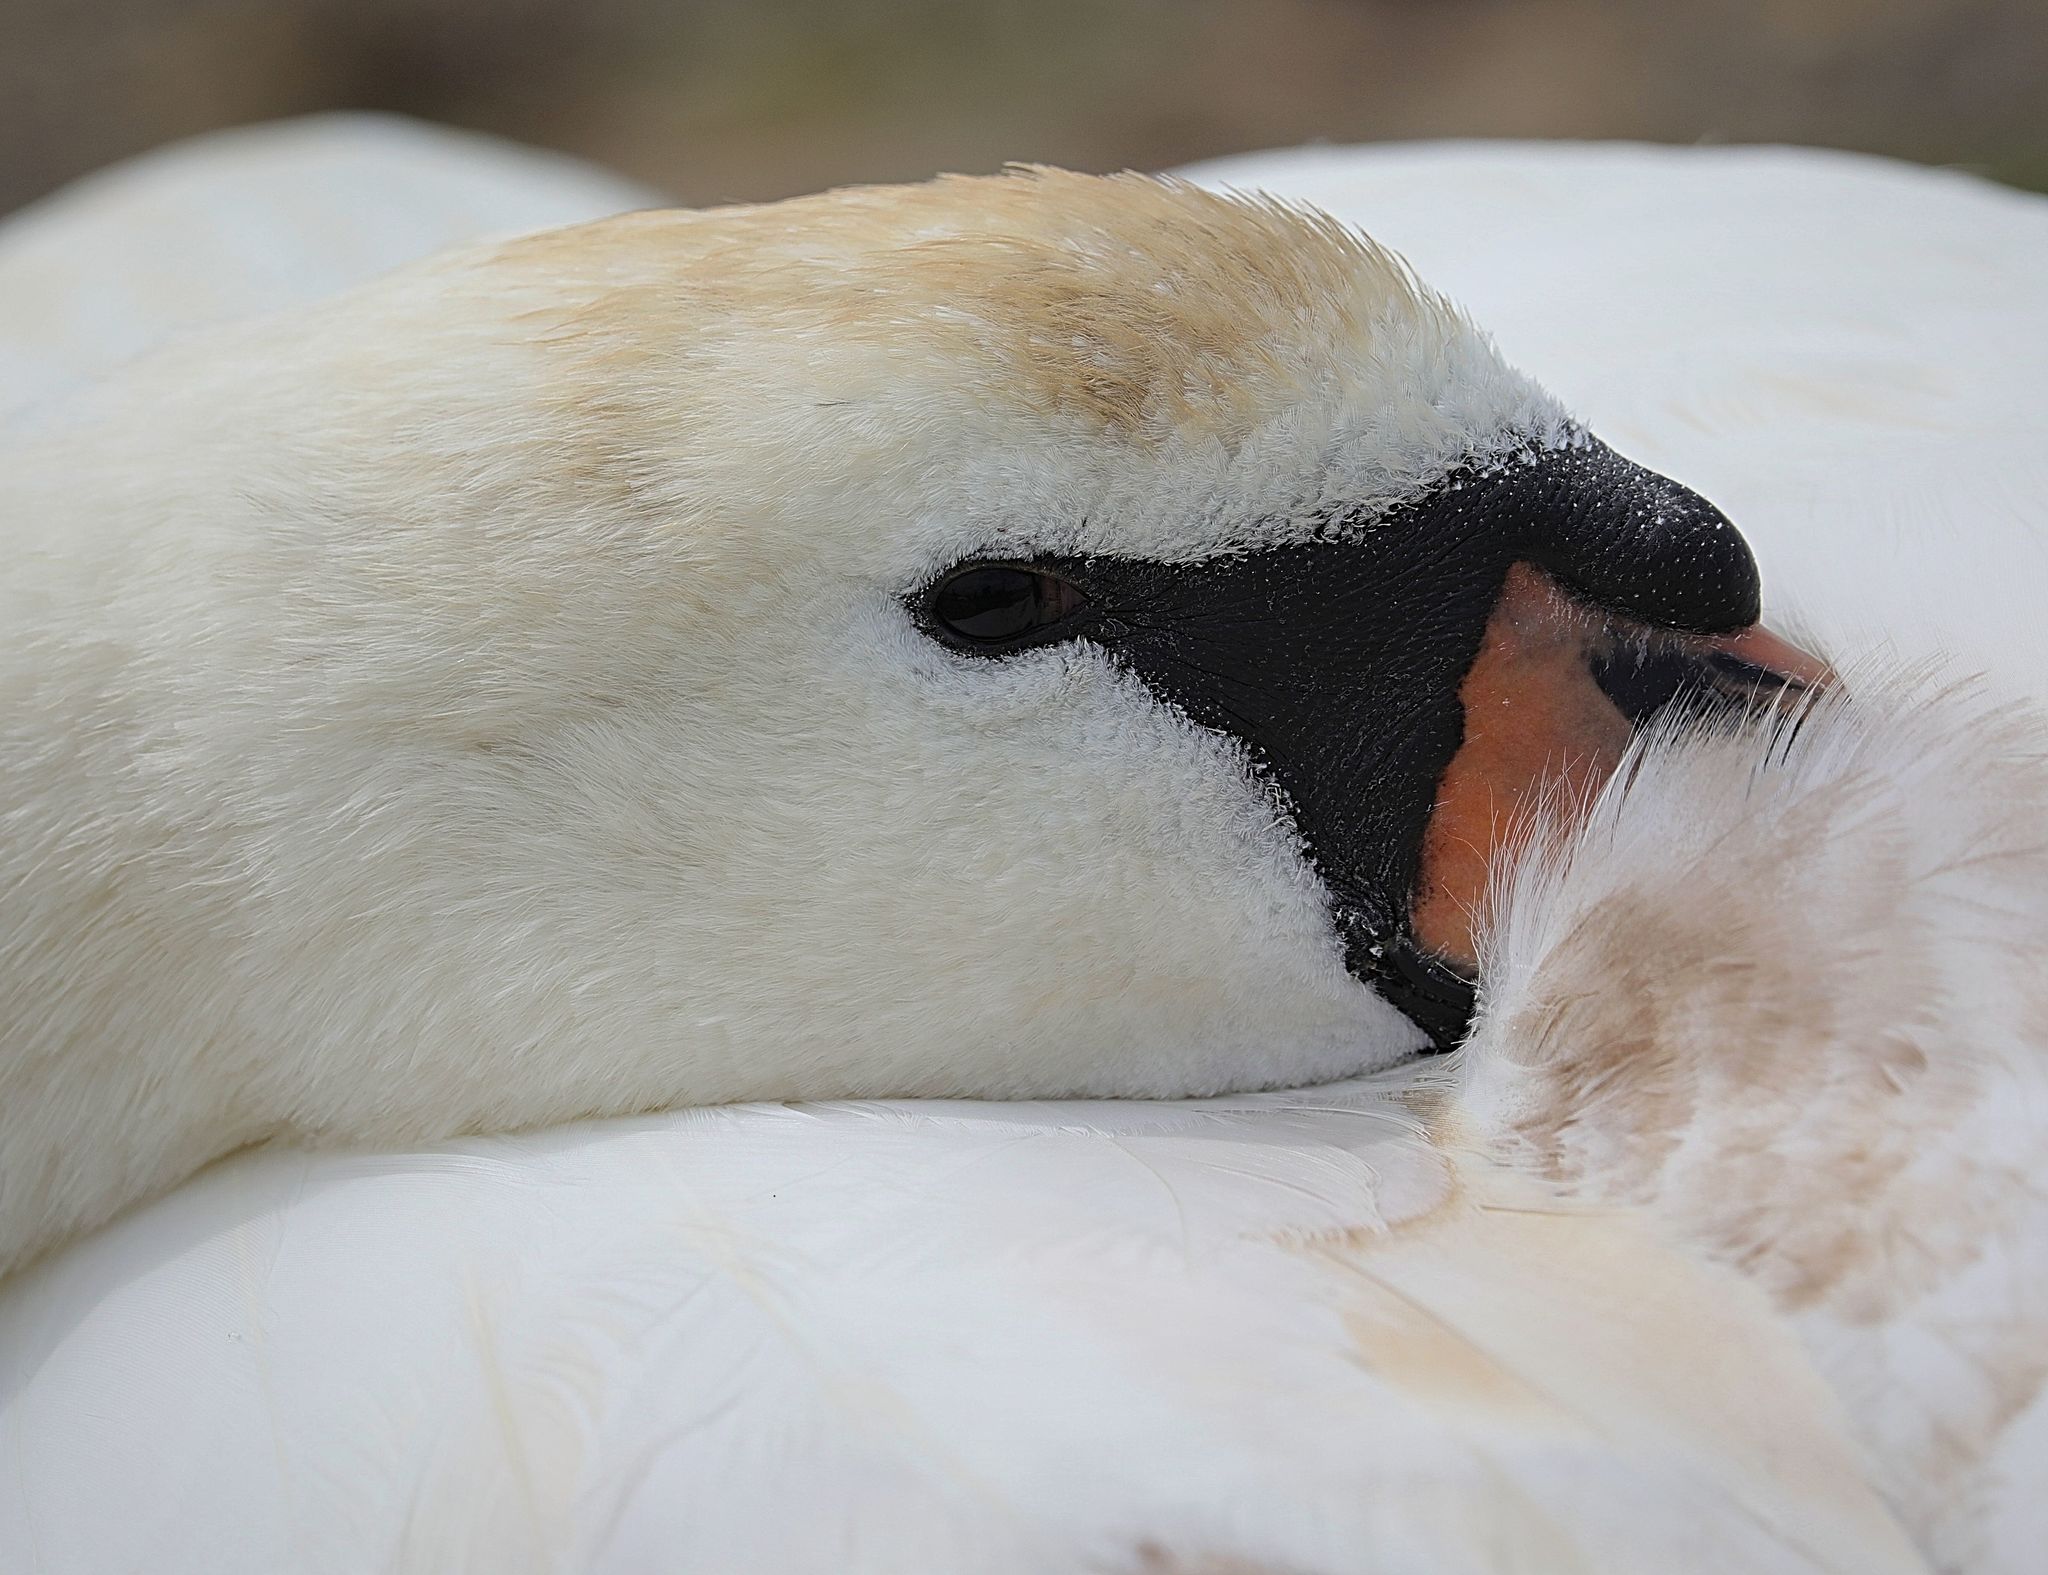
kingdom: Animalia
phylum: Chordata
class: Aves
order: Anseriformes
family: Anatidae
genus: Cygnus
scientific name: Cygnus olor
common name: Mute swan
